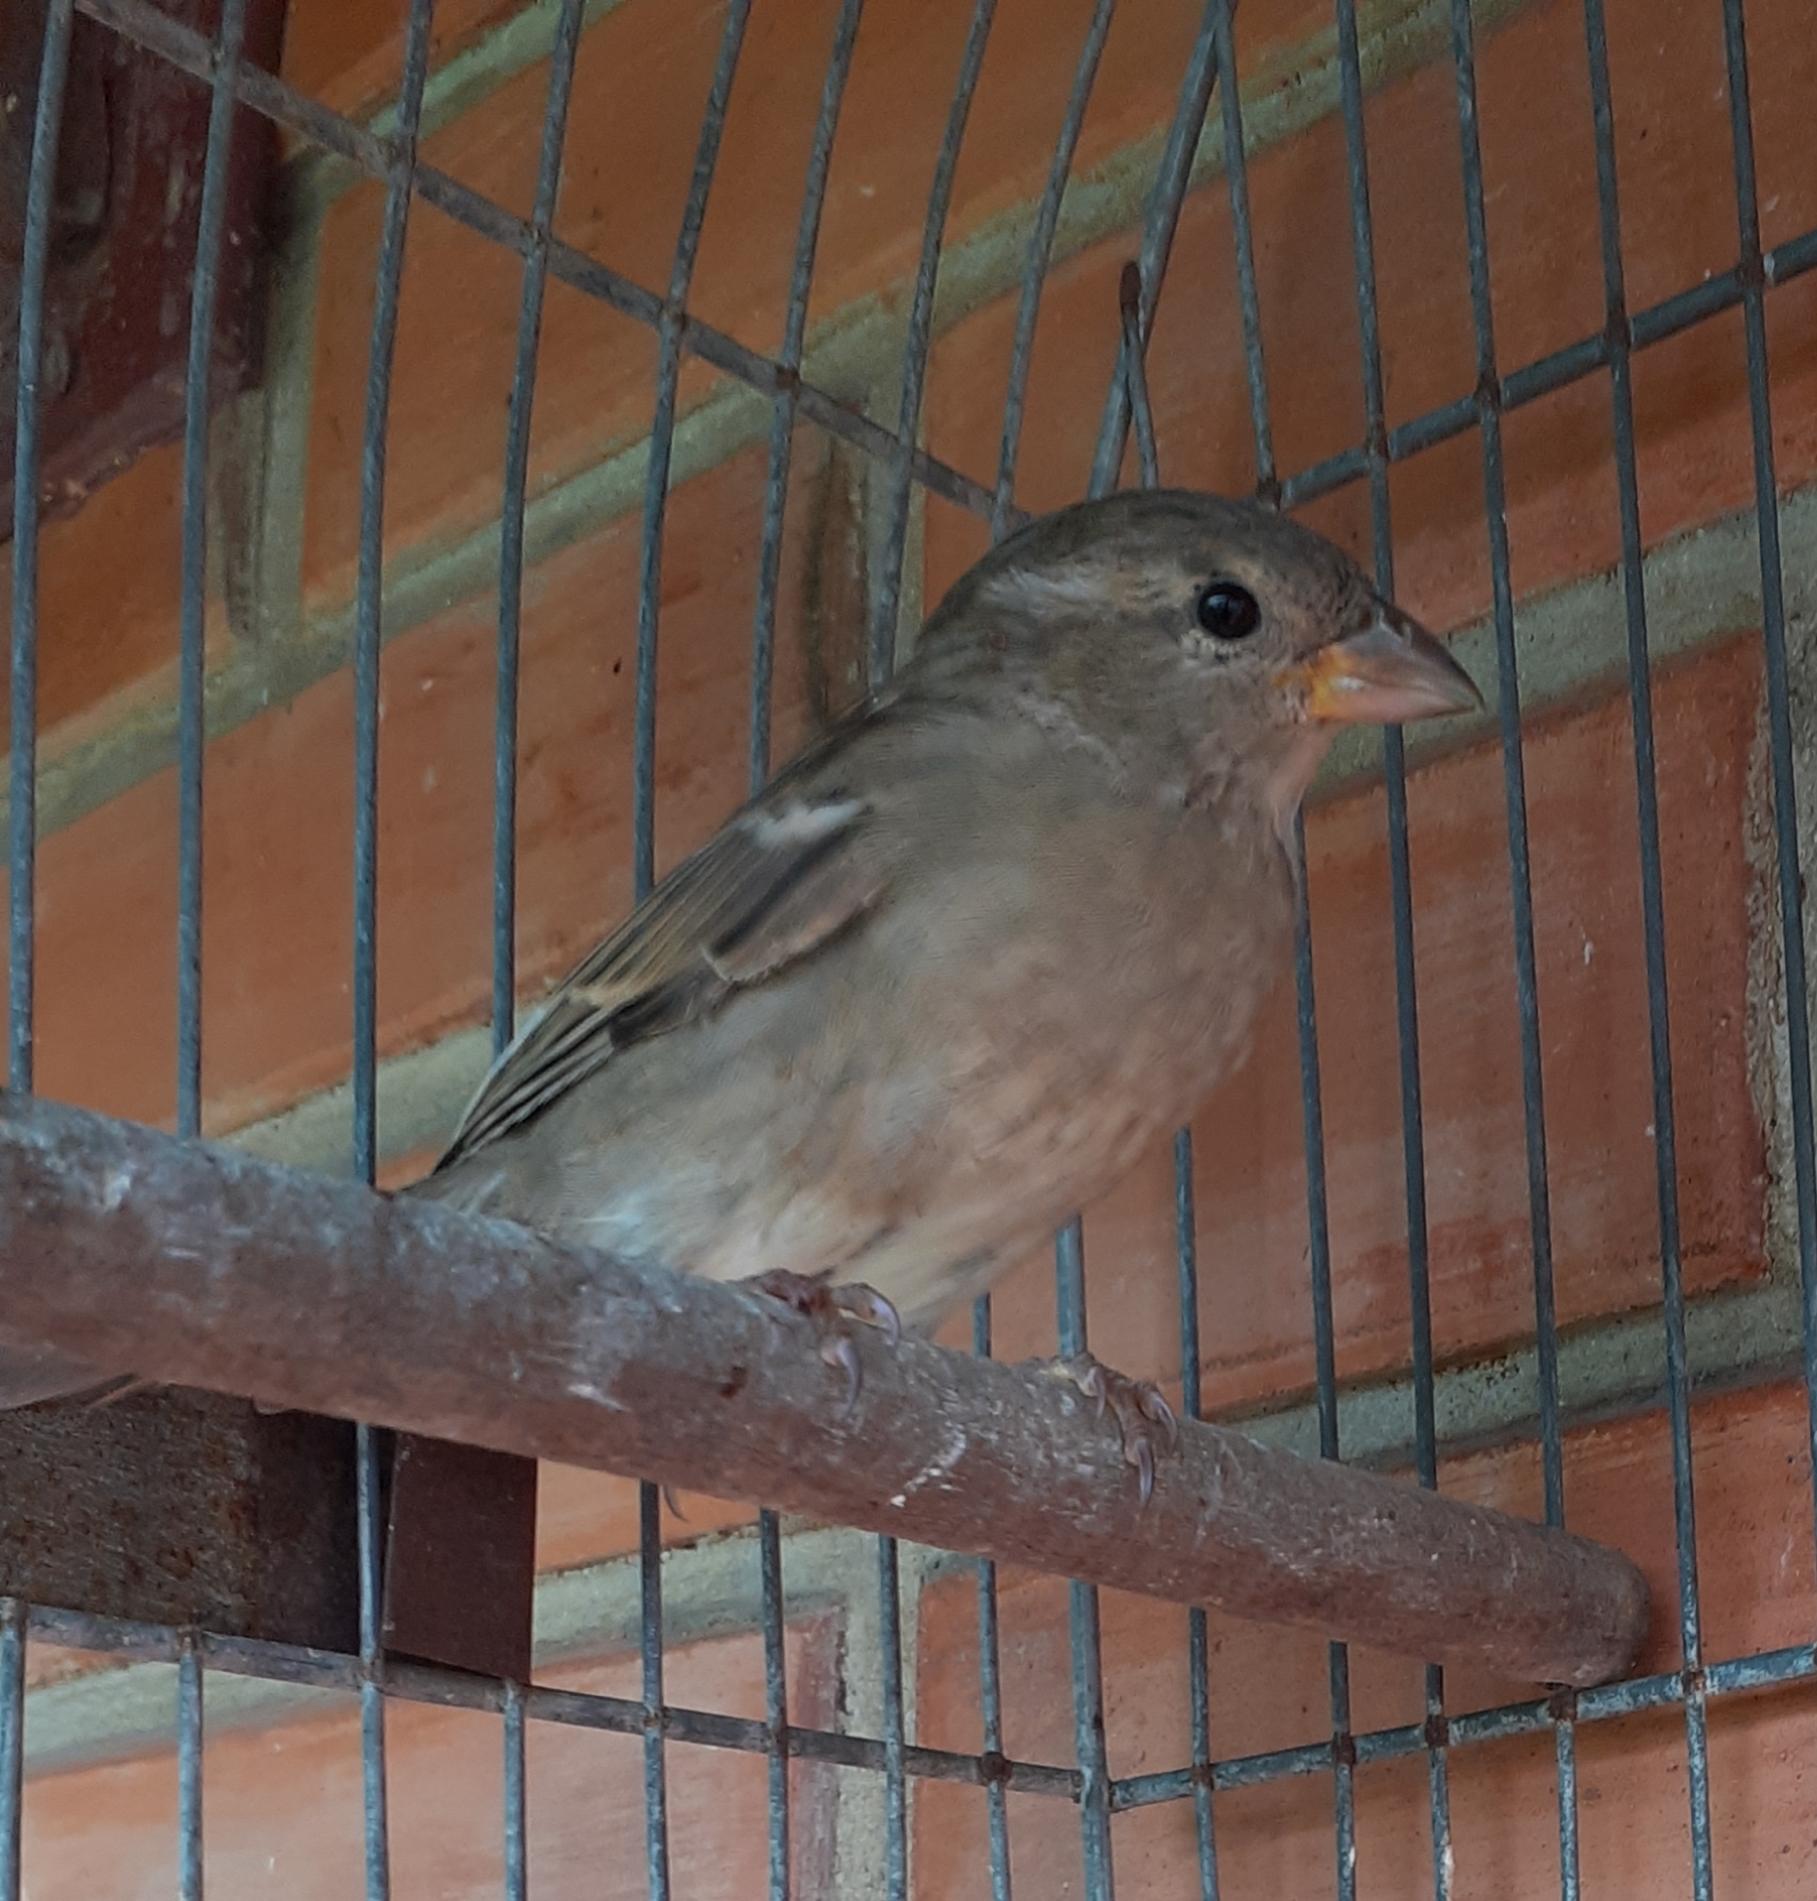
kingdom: Animalia
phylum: Chordata
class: Aves
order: Passeriformes
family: Passeridae
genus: Passer
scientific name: Passer domesticus
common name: House sparrow
